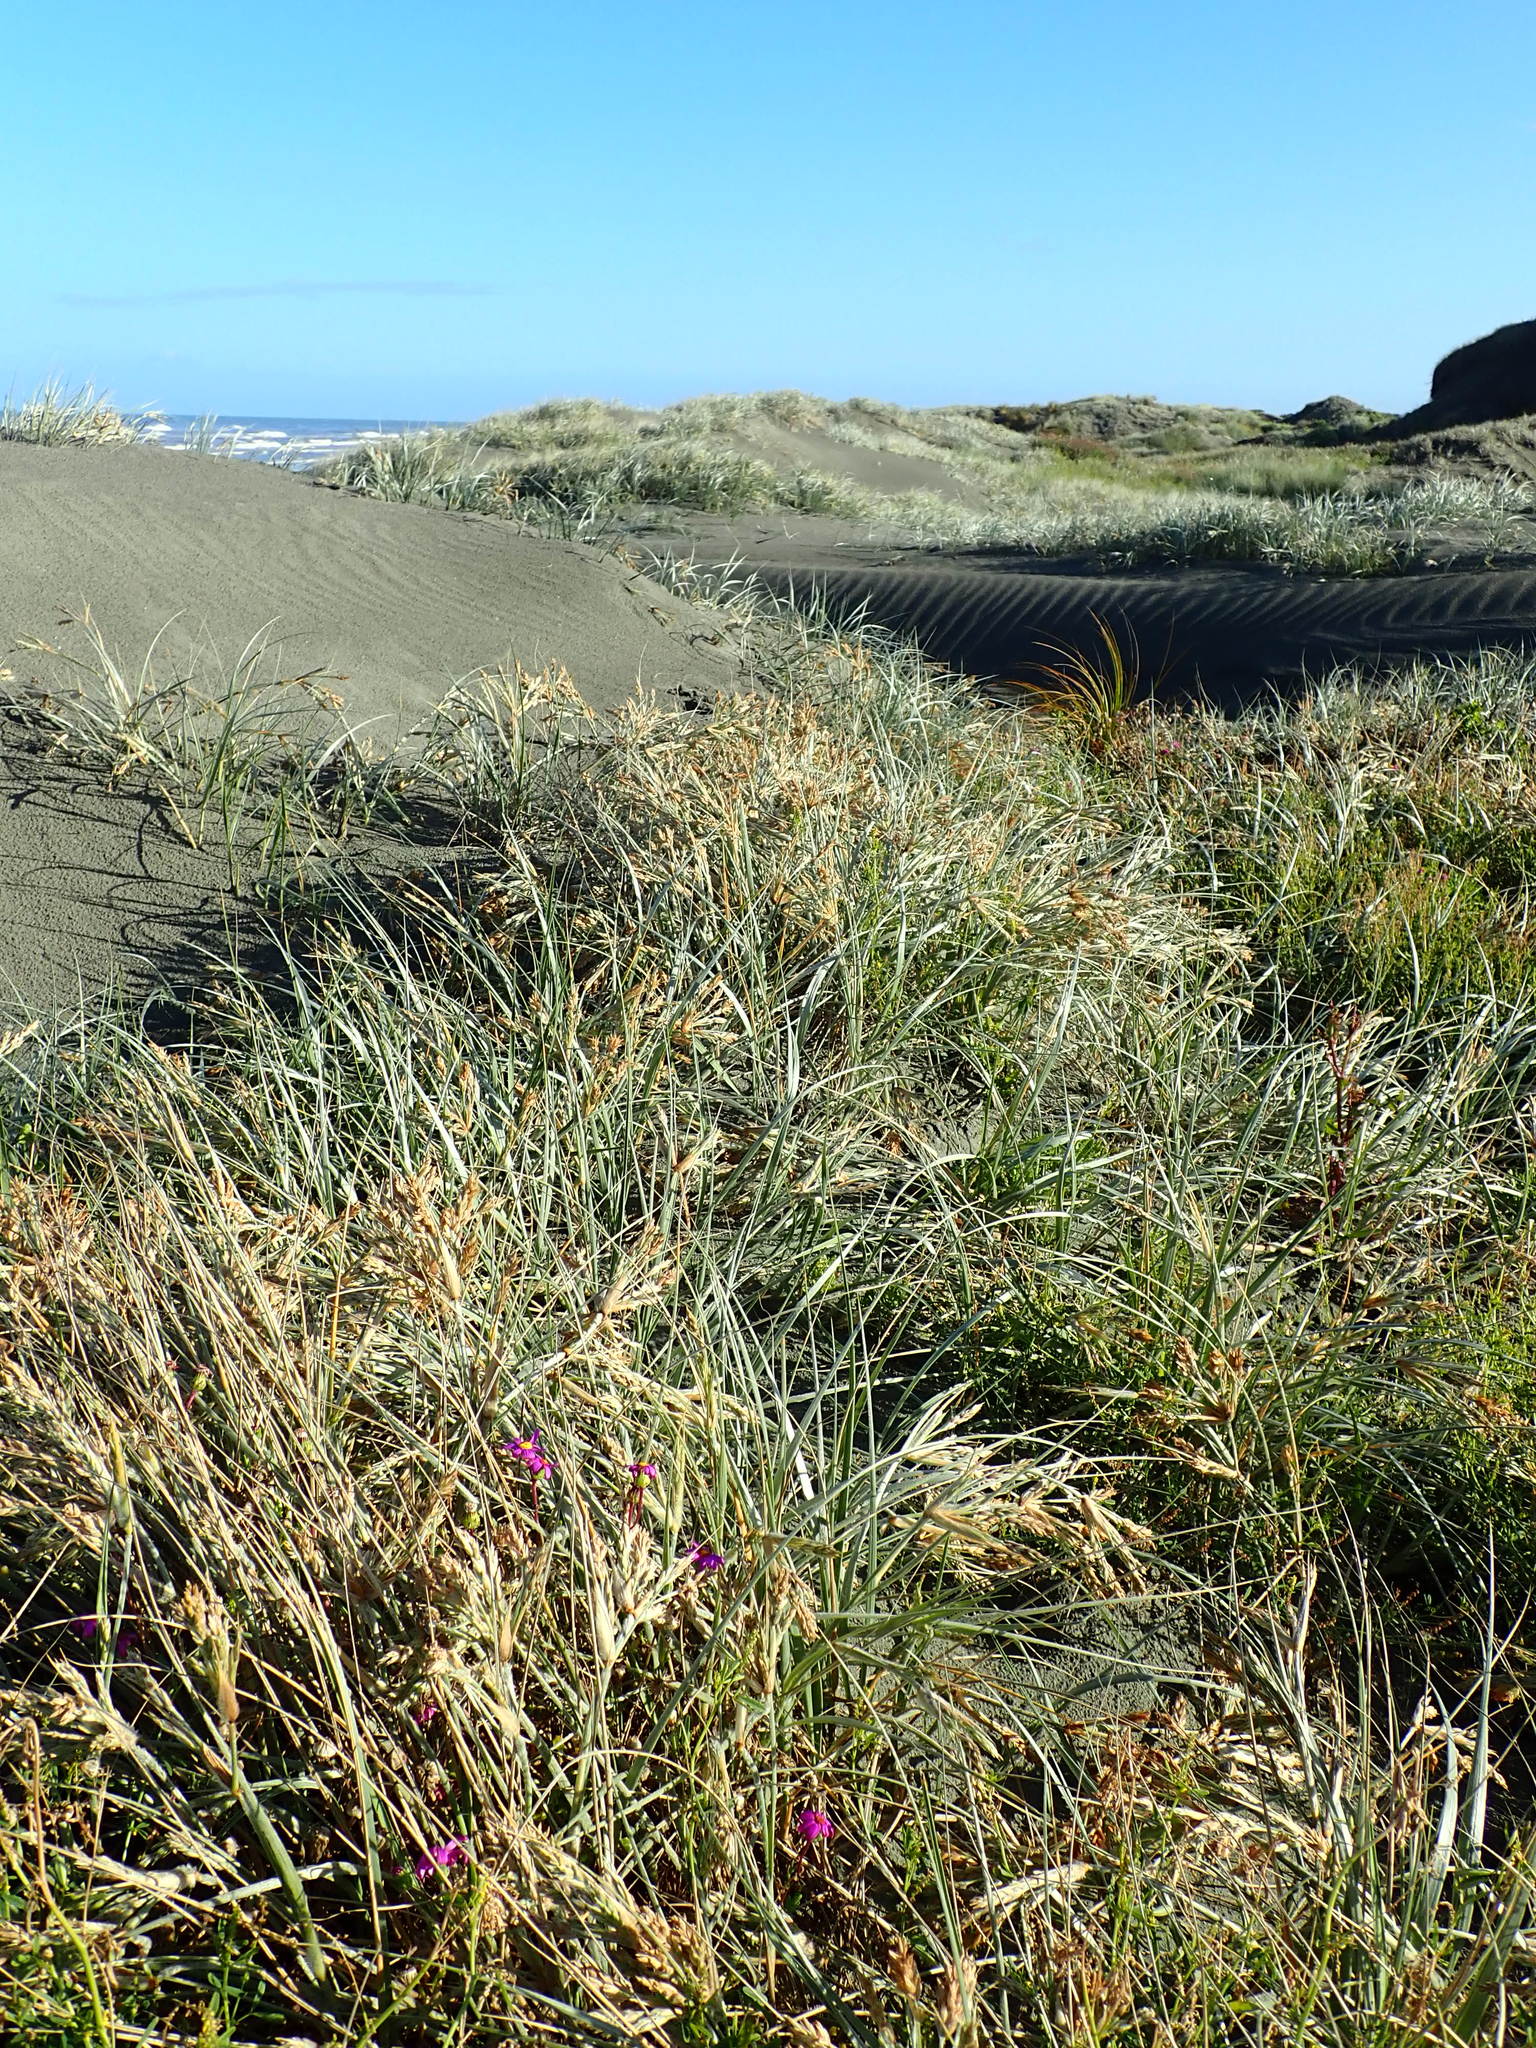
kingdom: Plantae
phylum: Tracheophyta
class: Liliopsida
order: Poales
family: Poaceae
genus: Spinifex
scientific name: Spinifex sericeus
